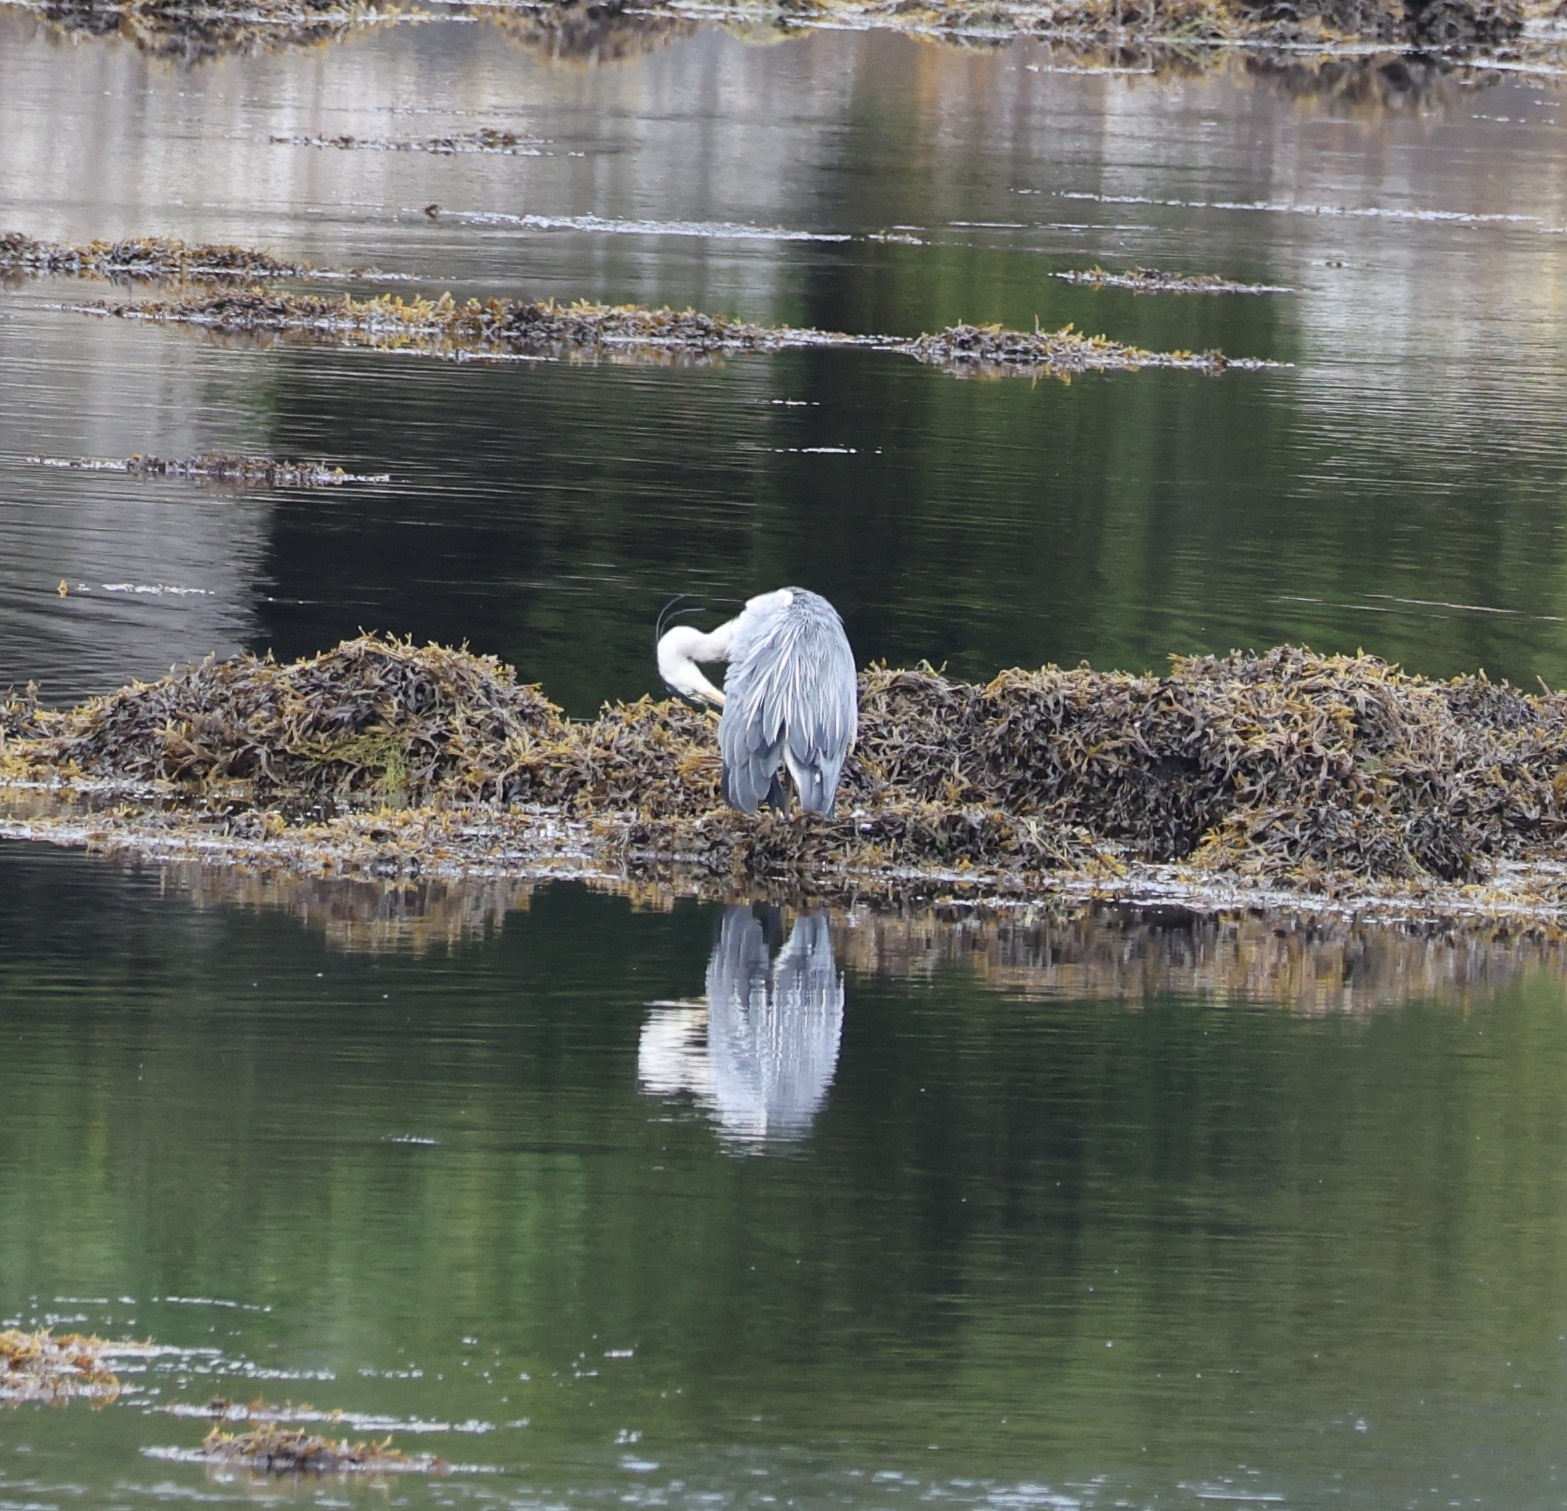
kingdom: Animalia
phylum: Chordata
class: Aves
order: Pelecaniformes
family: Ardeidae
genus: Ardea
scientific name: Ardea cinerea
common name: Grey heron
